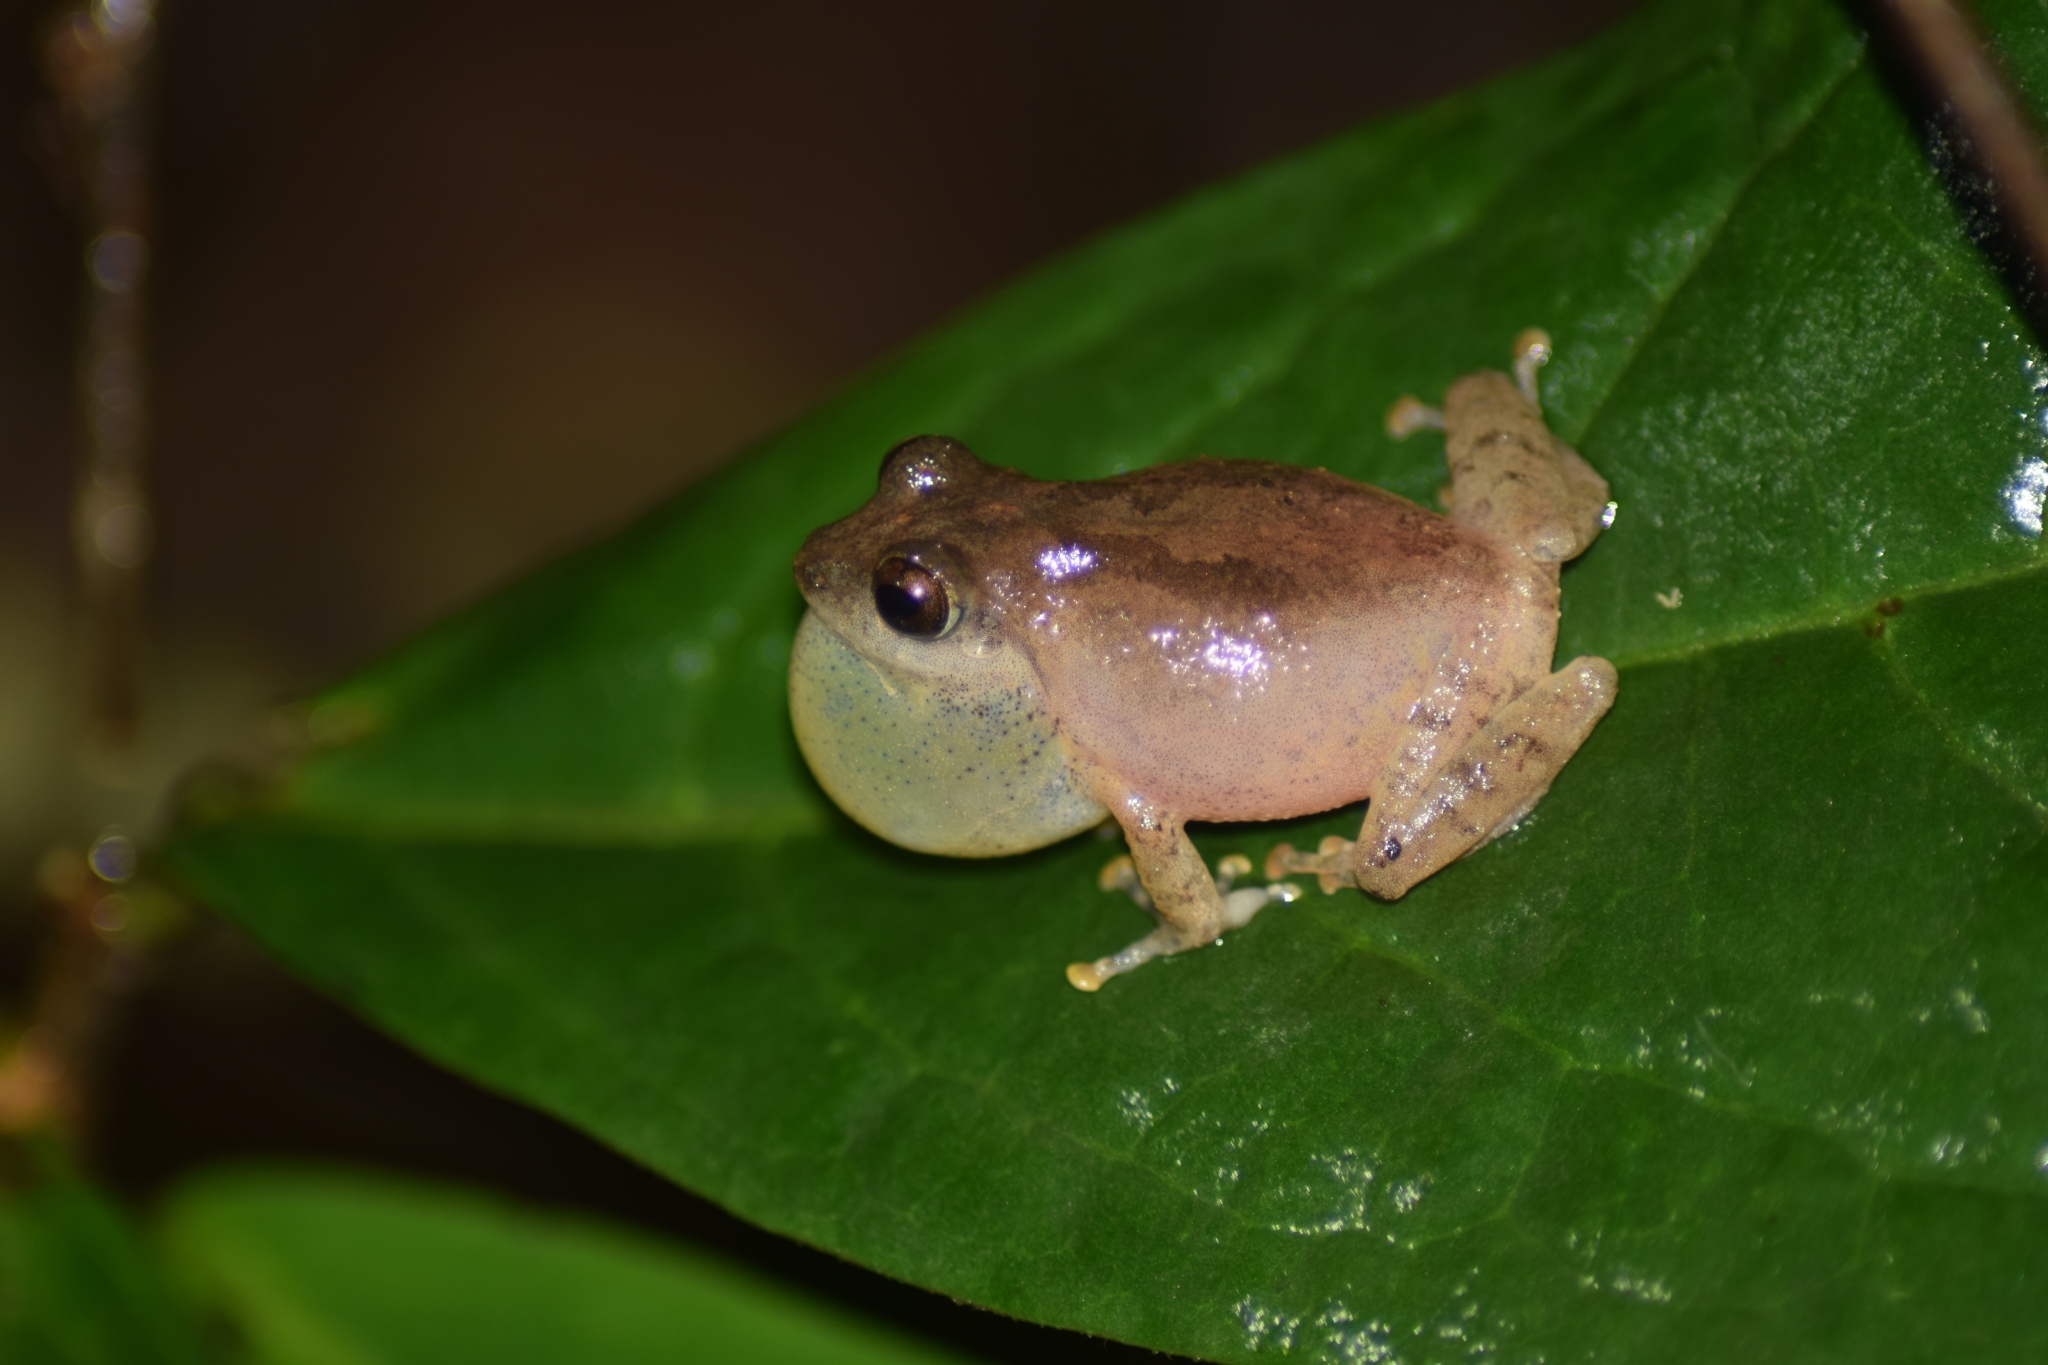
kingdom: Animalia
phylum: Chordata
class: Amphibia
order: Anura
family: Rhacophoridae
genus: Pseudophilautus
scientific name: Pseudophilautus wynaadensis
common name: Dark-eared bush frog
